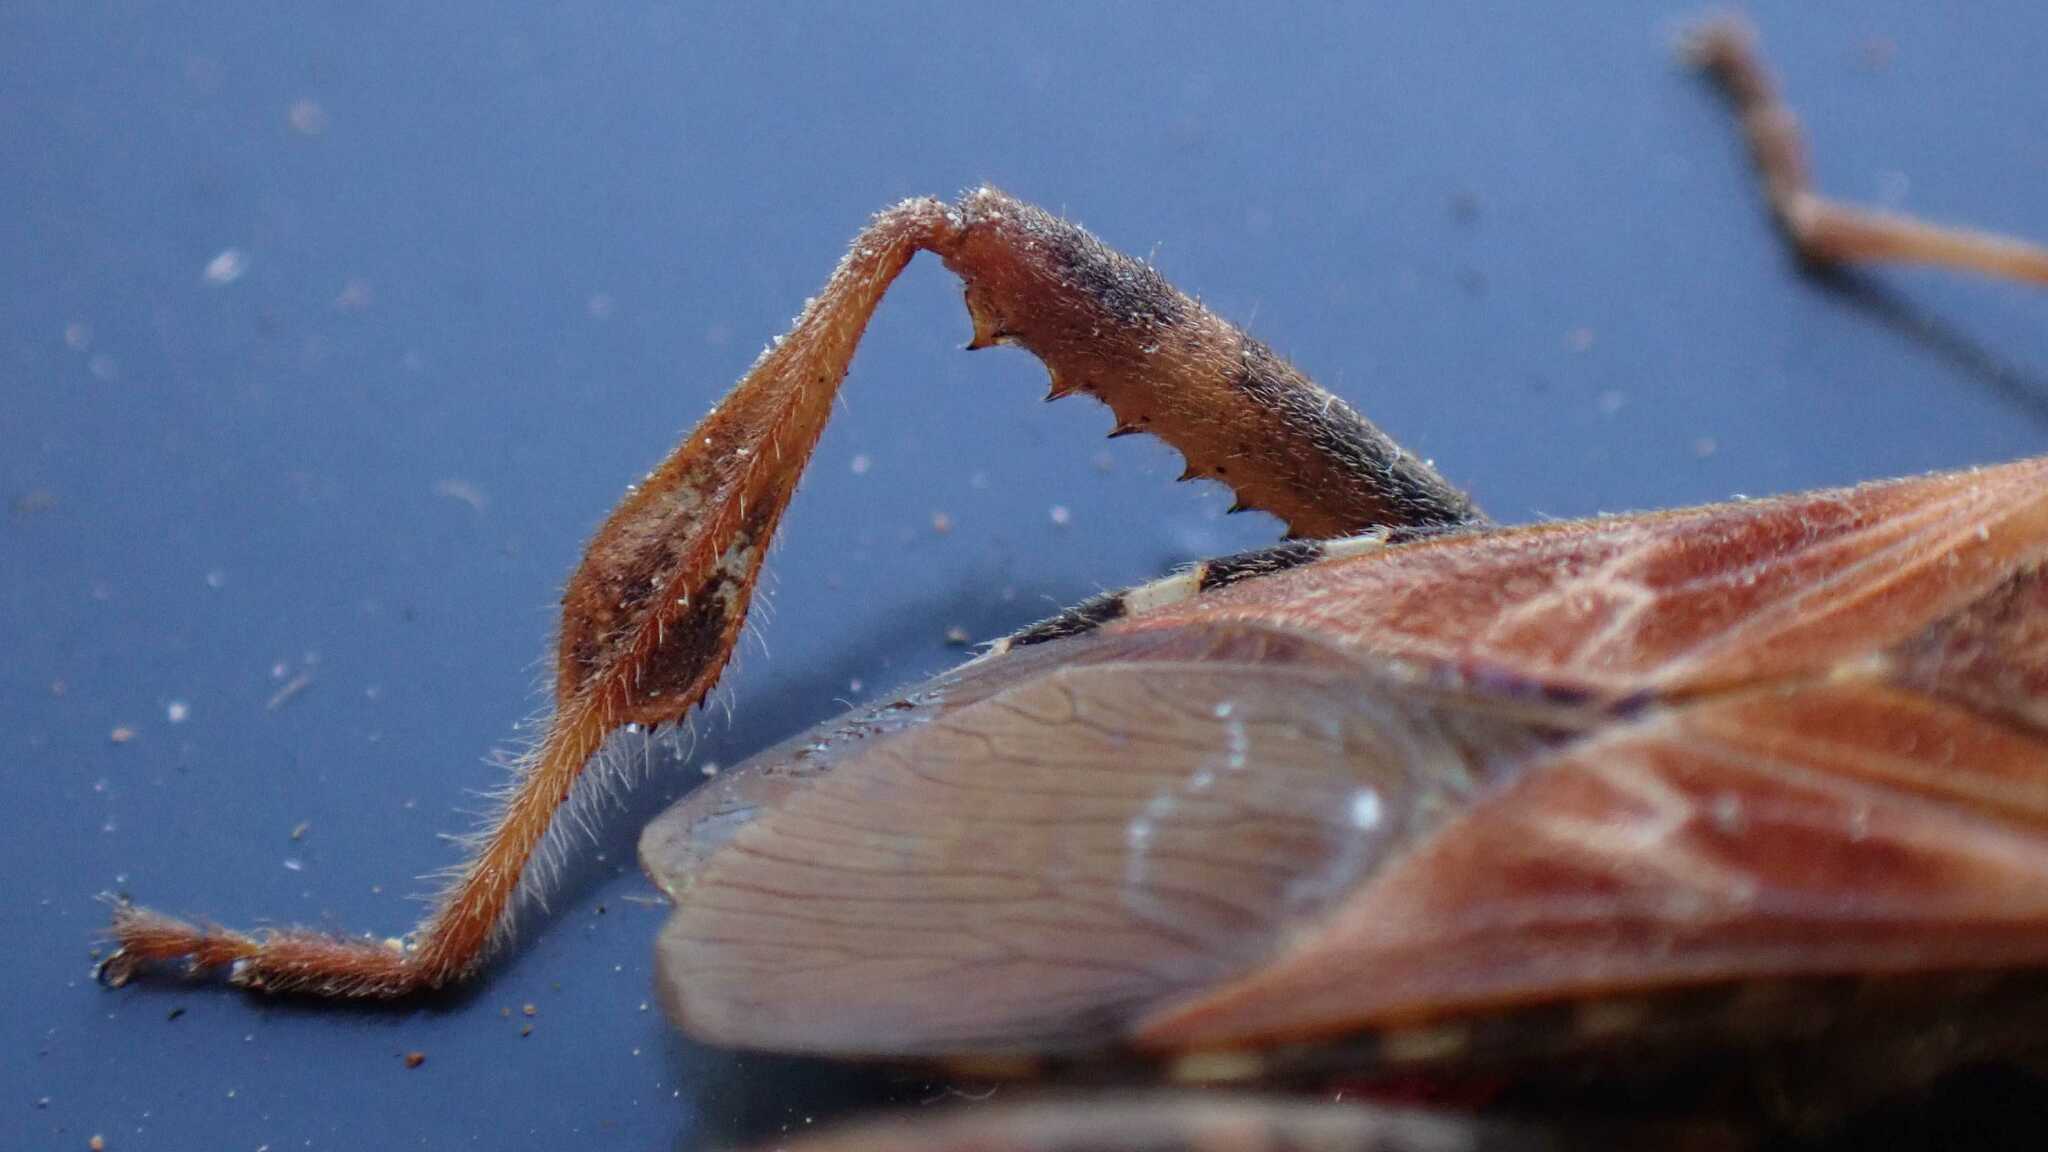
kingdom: Animalia
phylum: Arthropoda
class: Insecta
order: Hemiptera
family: Coreidae
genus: Leptoglossus
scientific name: Leptoglossus occidentalis
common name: Western conifer-seed bug
